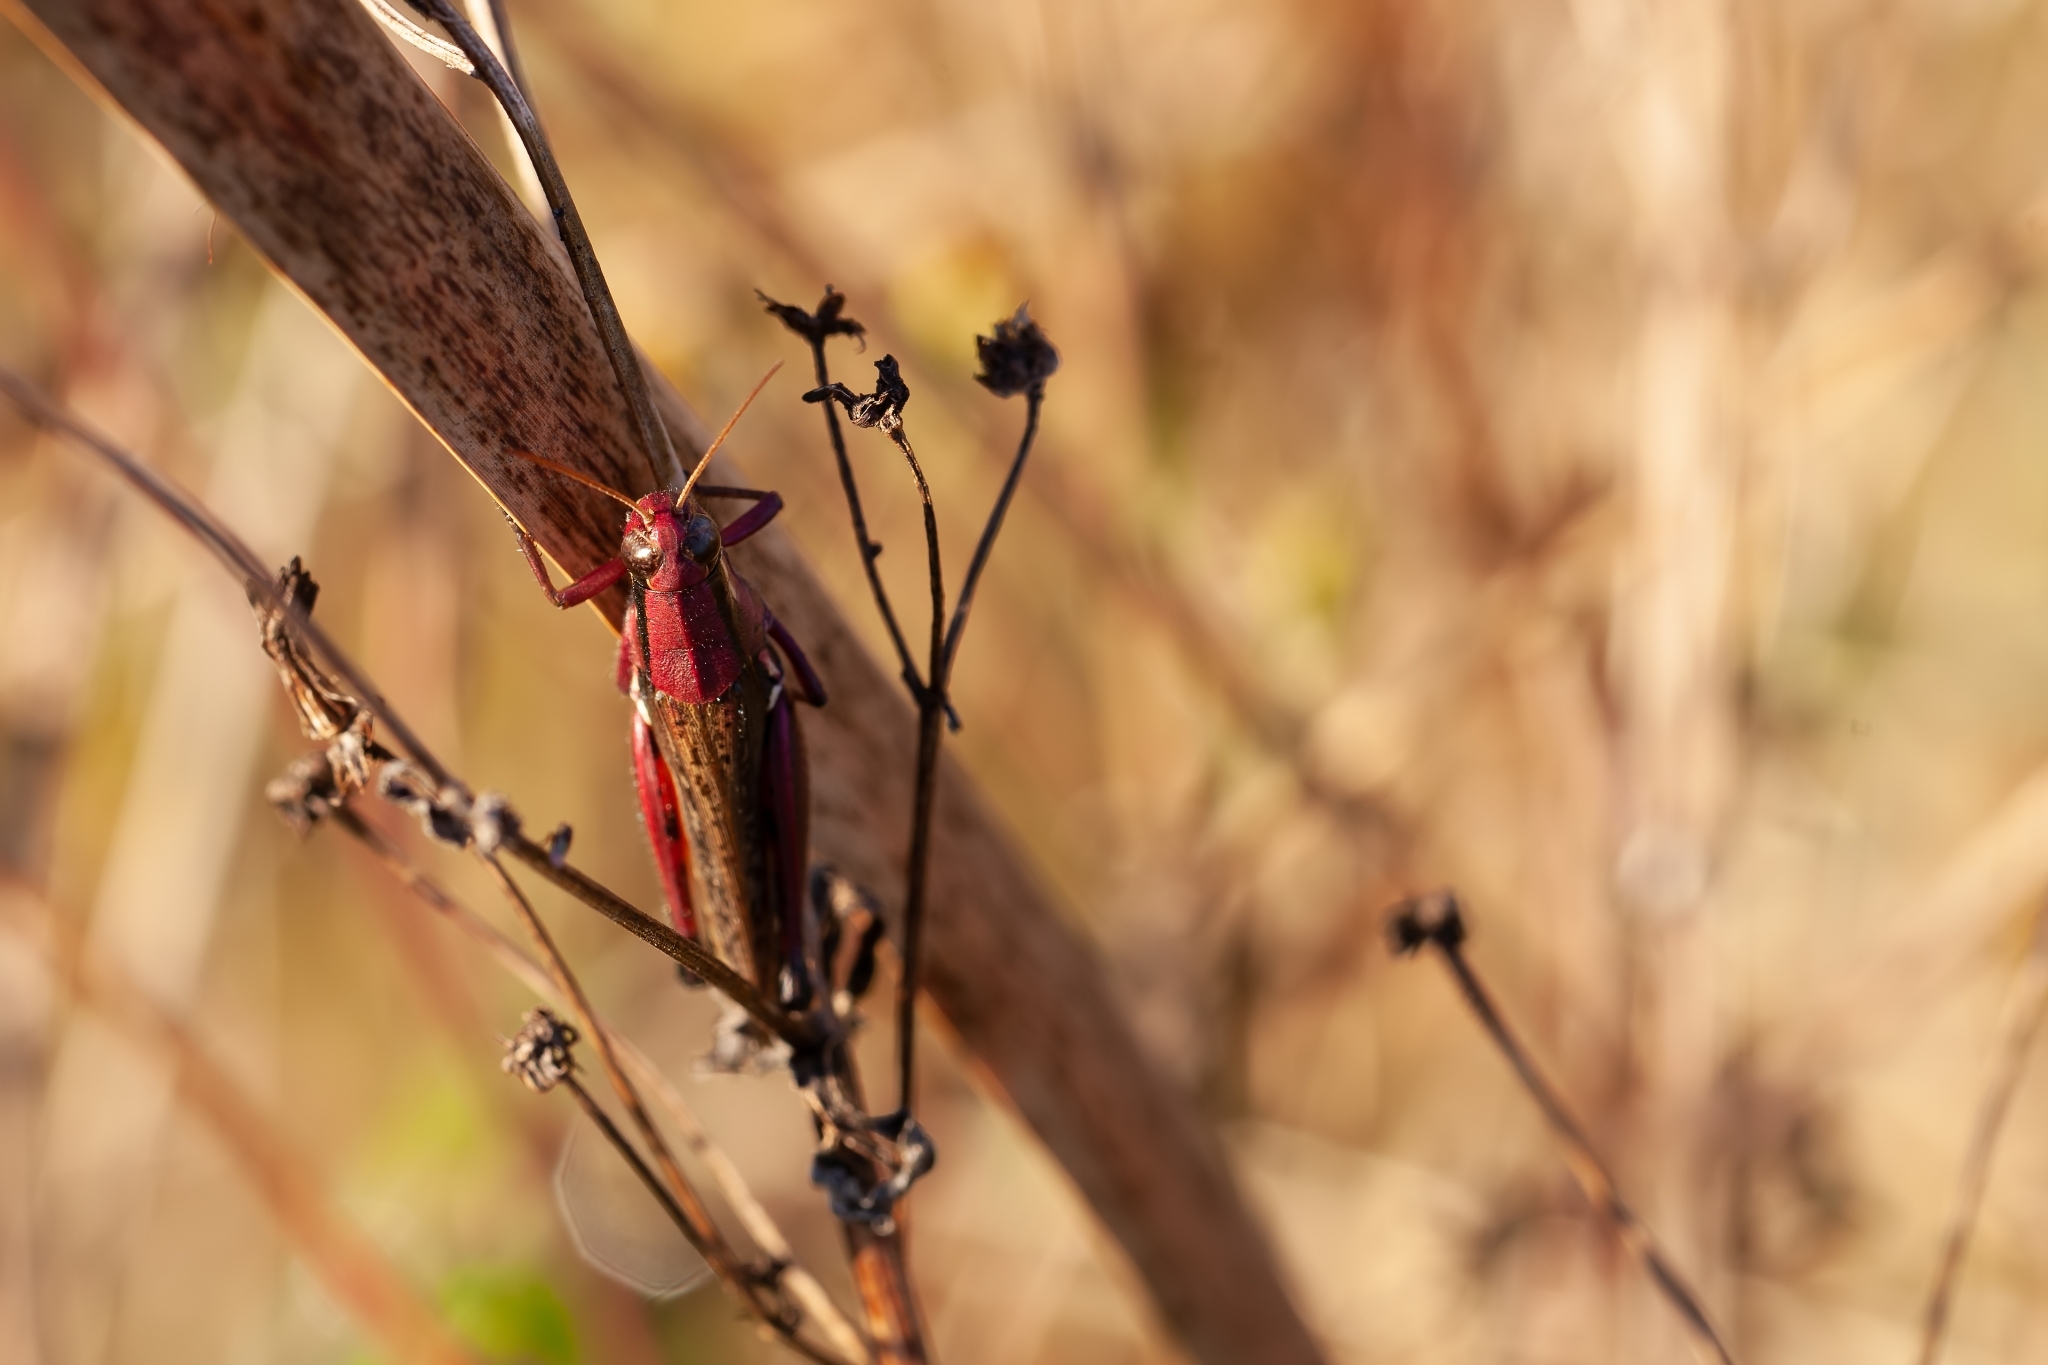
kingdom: Animalia
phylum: Arthropoda
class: Insecta
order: Orthoptera
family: Acrididae
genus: Paroxya
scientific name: Paroxya atlantica
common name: Atlantic grasshopper
